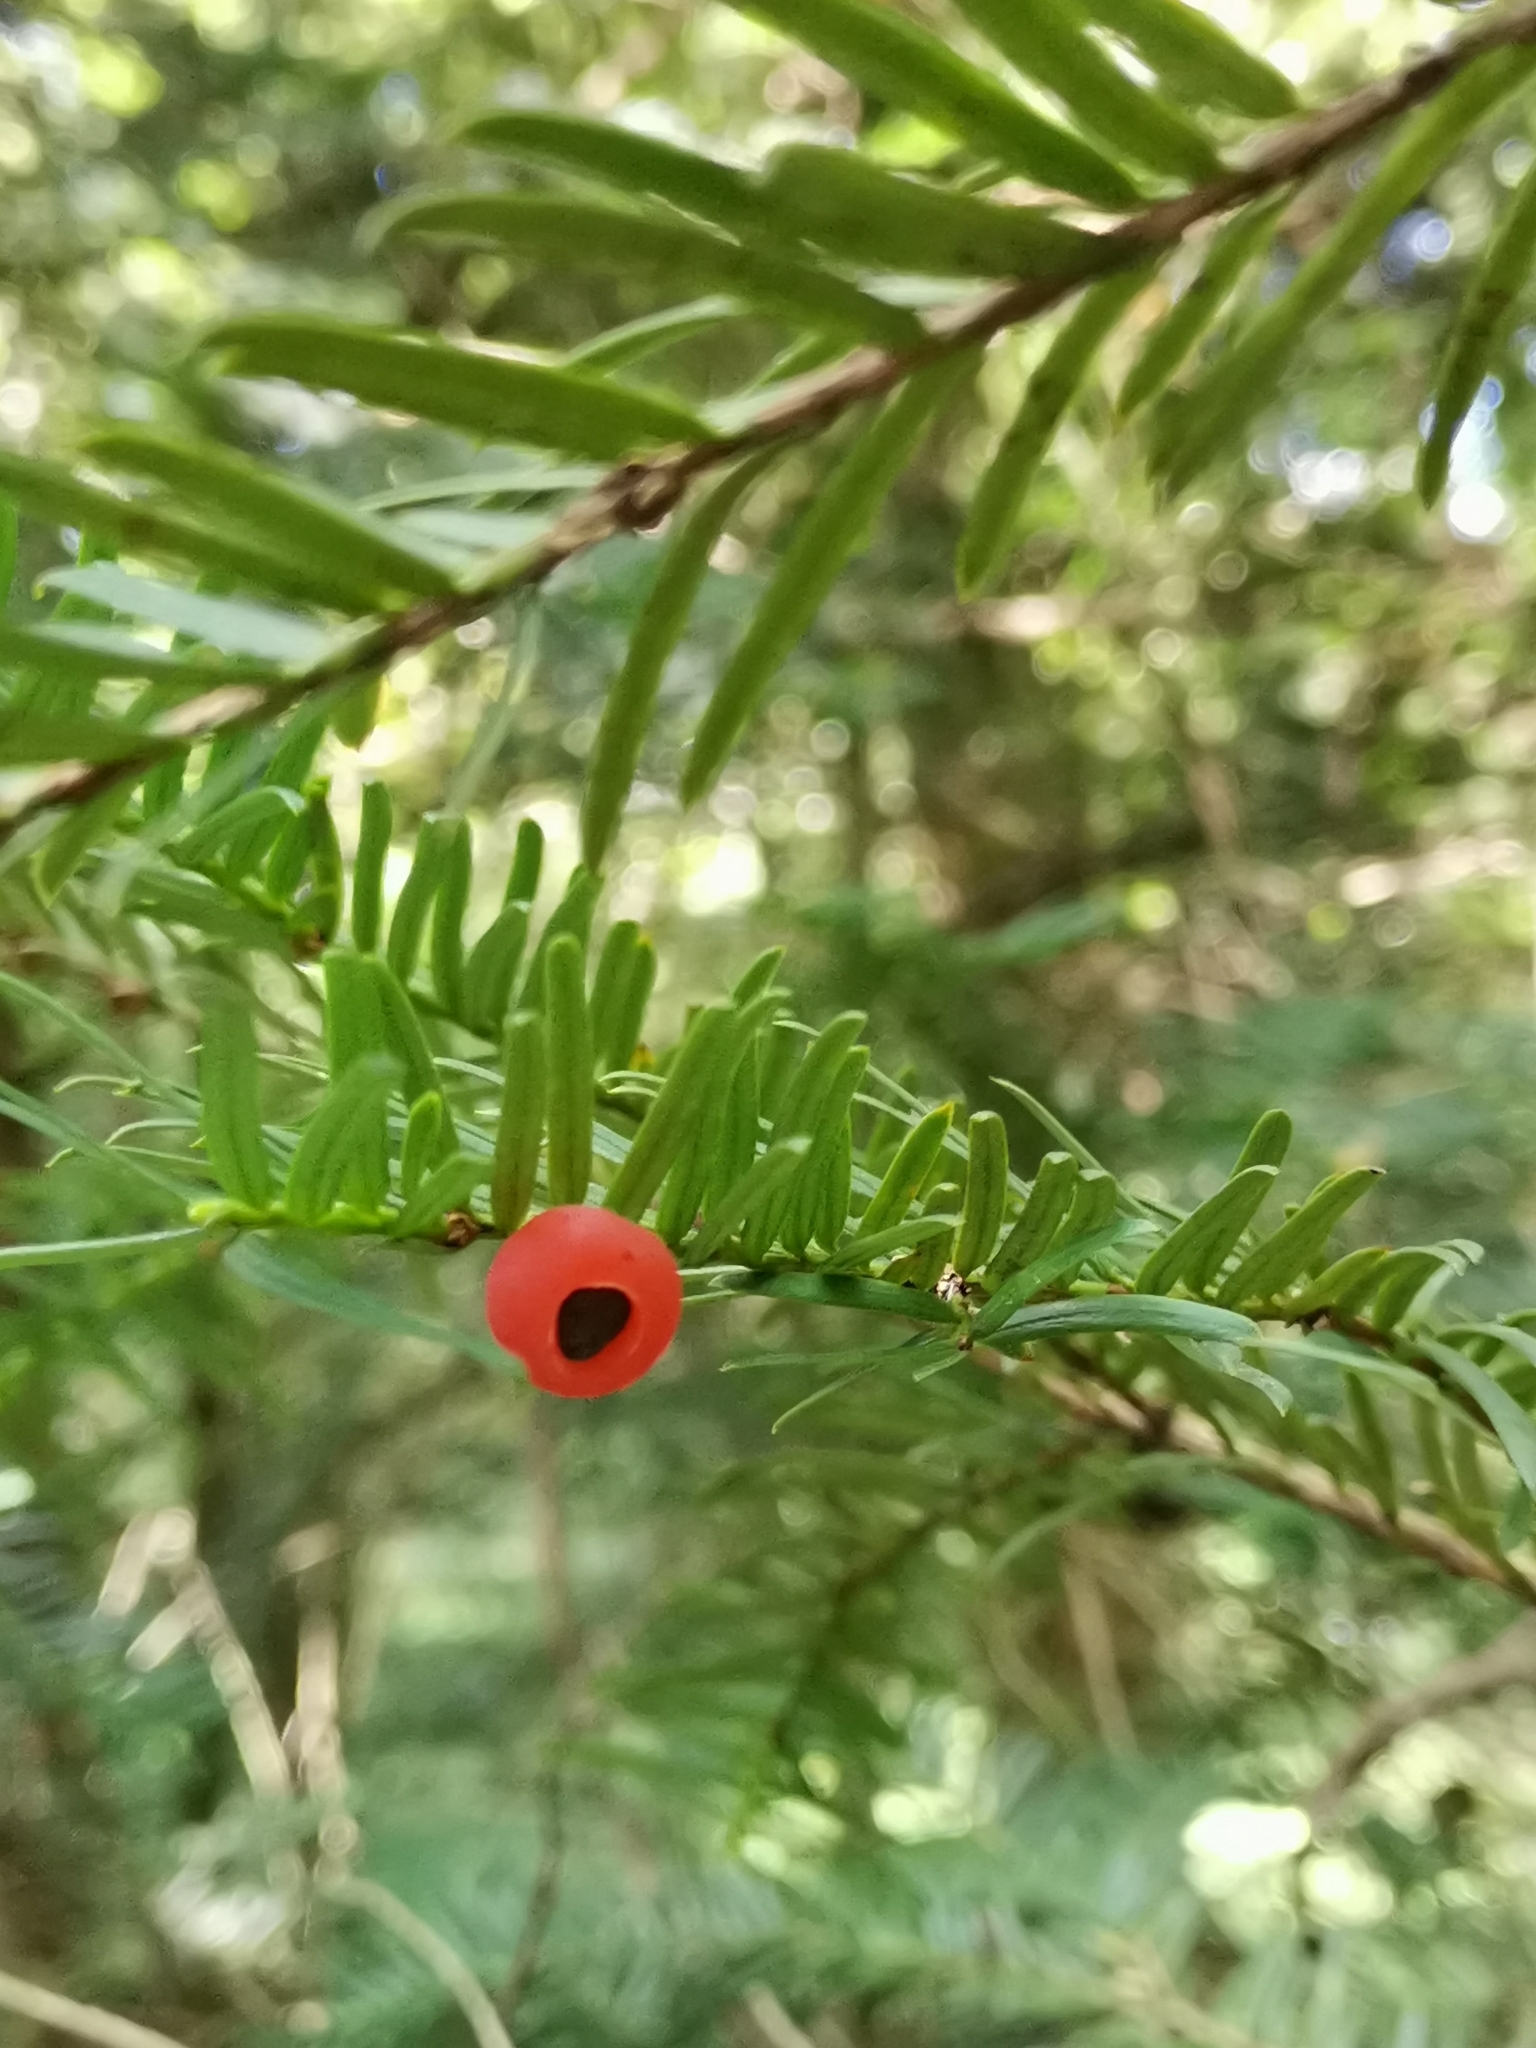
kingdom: Plantae
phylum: Tracheophyta
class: Pinopsida
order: Pinales
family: Taxaceae
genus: Taxus
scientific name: Taxus baccata
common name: Yew
